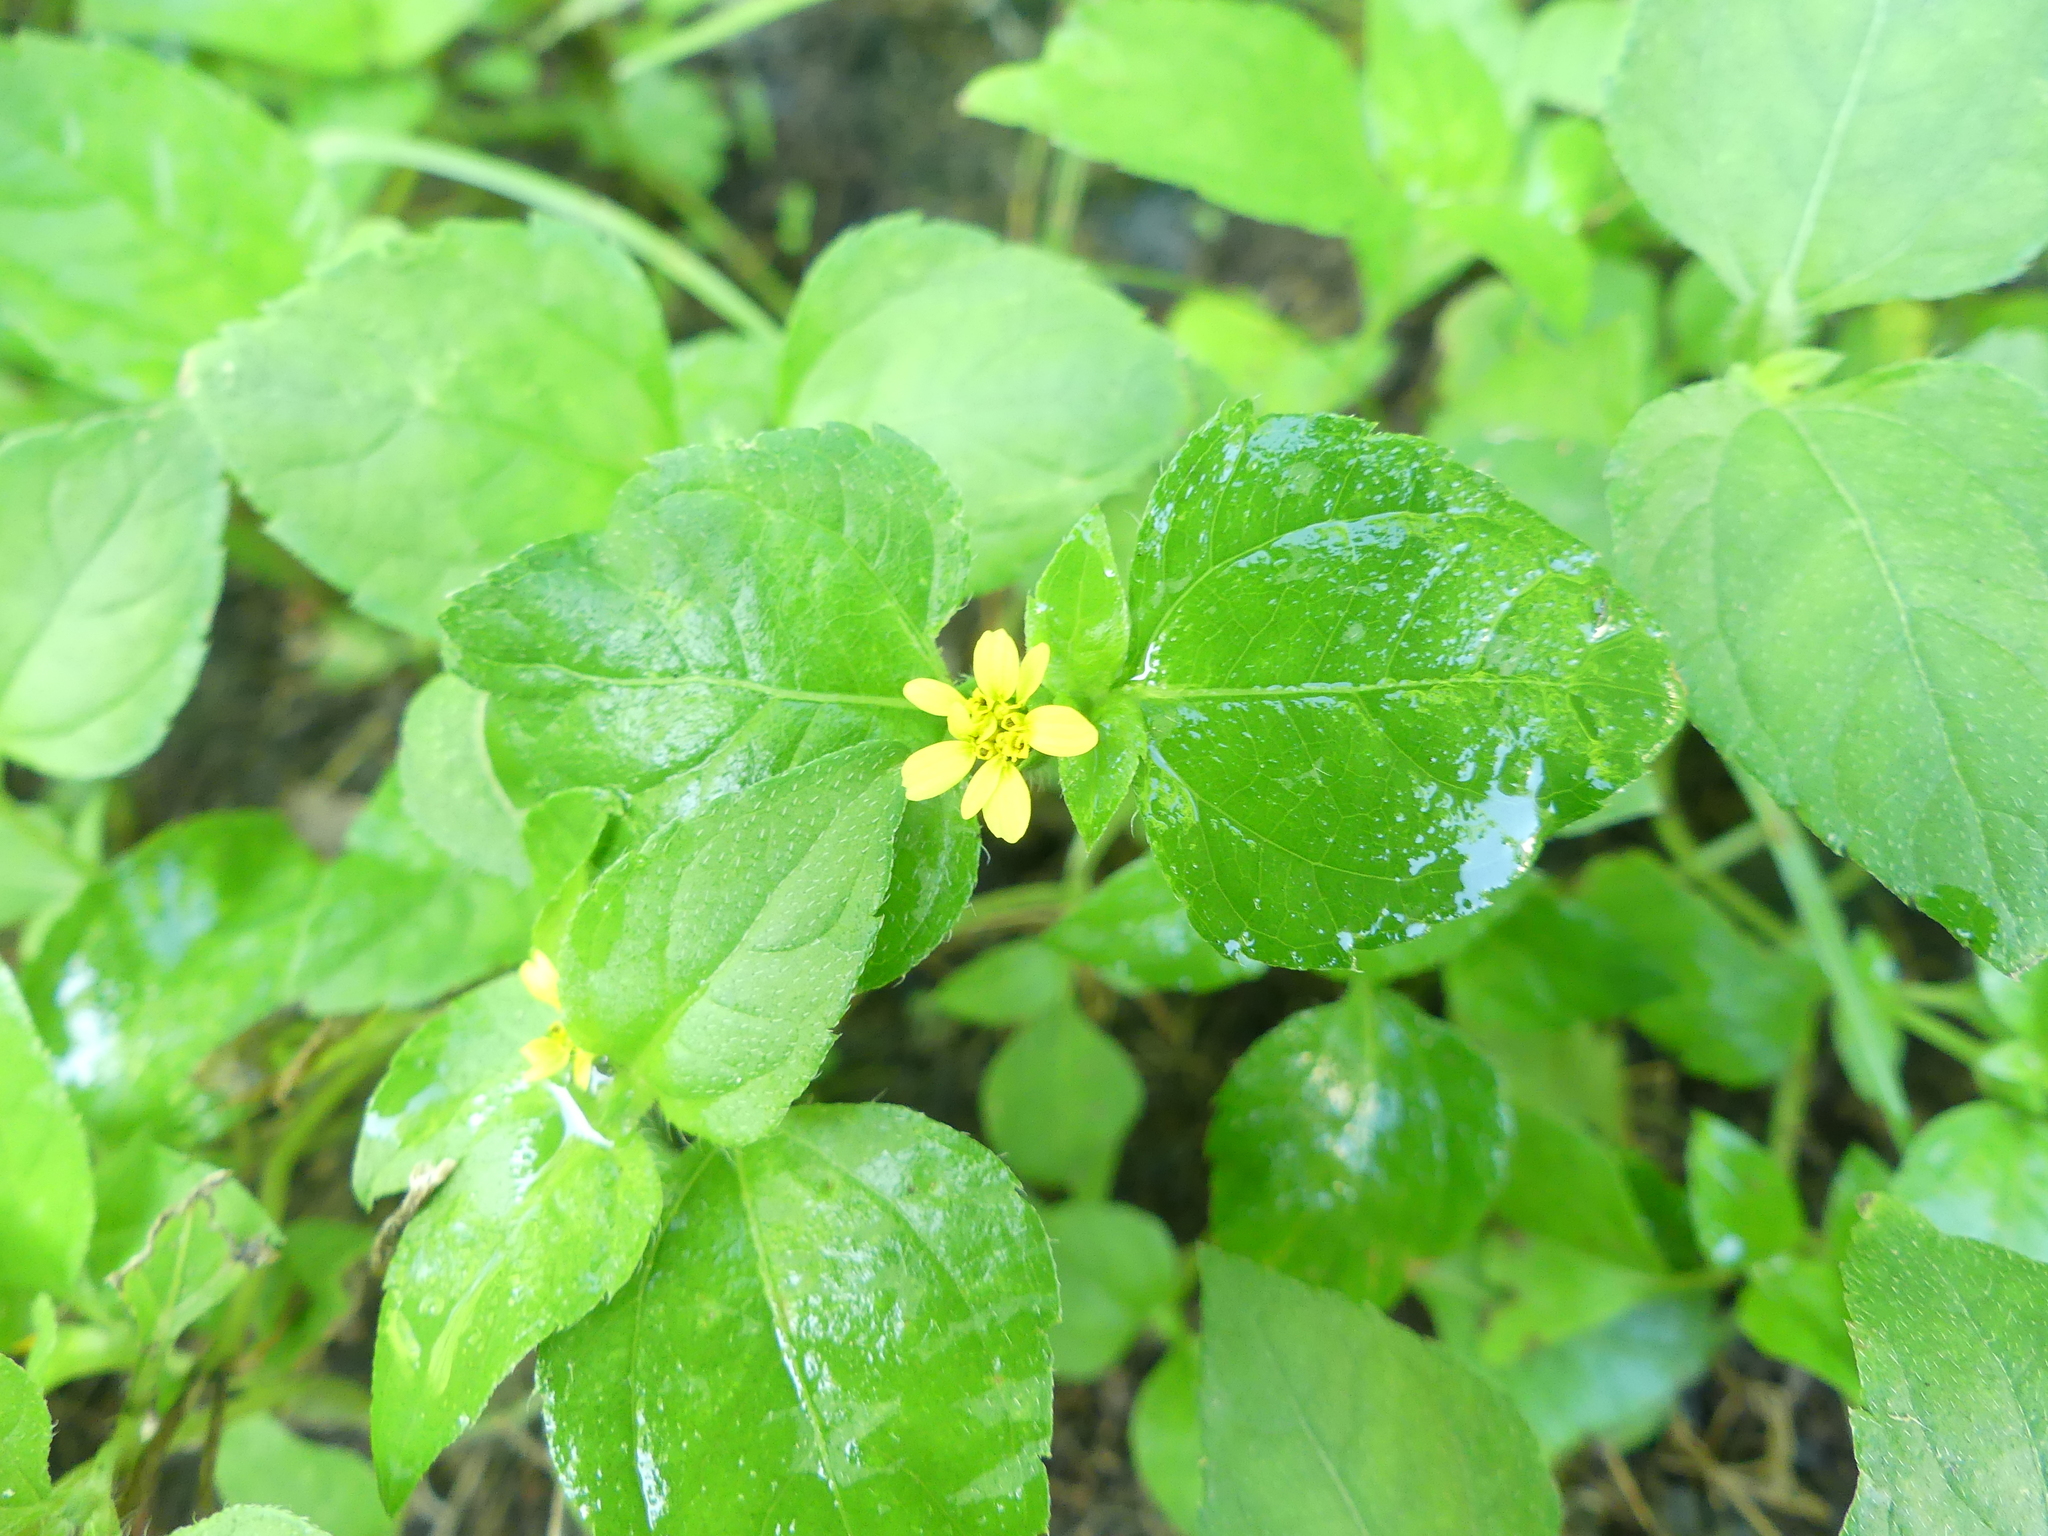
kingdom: Plantae
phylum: Tracheophyta
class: Magnoliopsida
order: Asterales
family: Asteraceae
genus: Calyptocarpus
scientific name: Calyptocarpus vialis
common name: Straggler daisy
